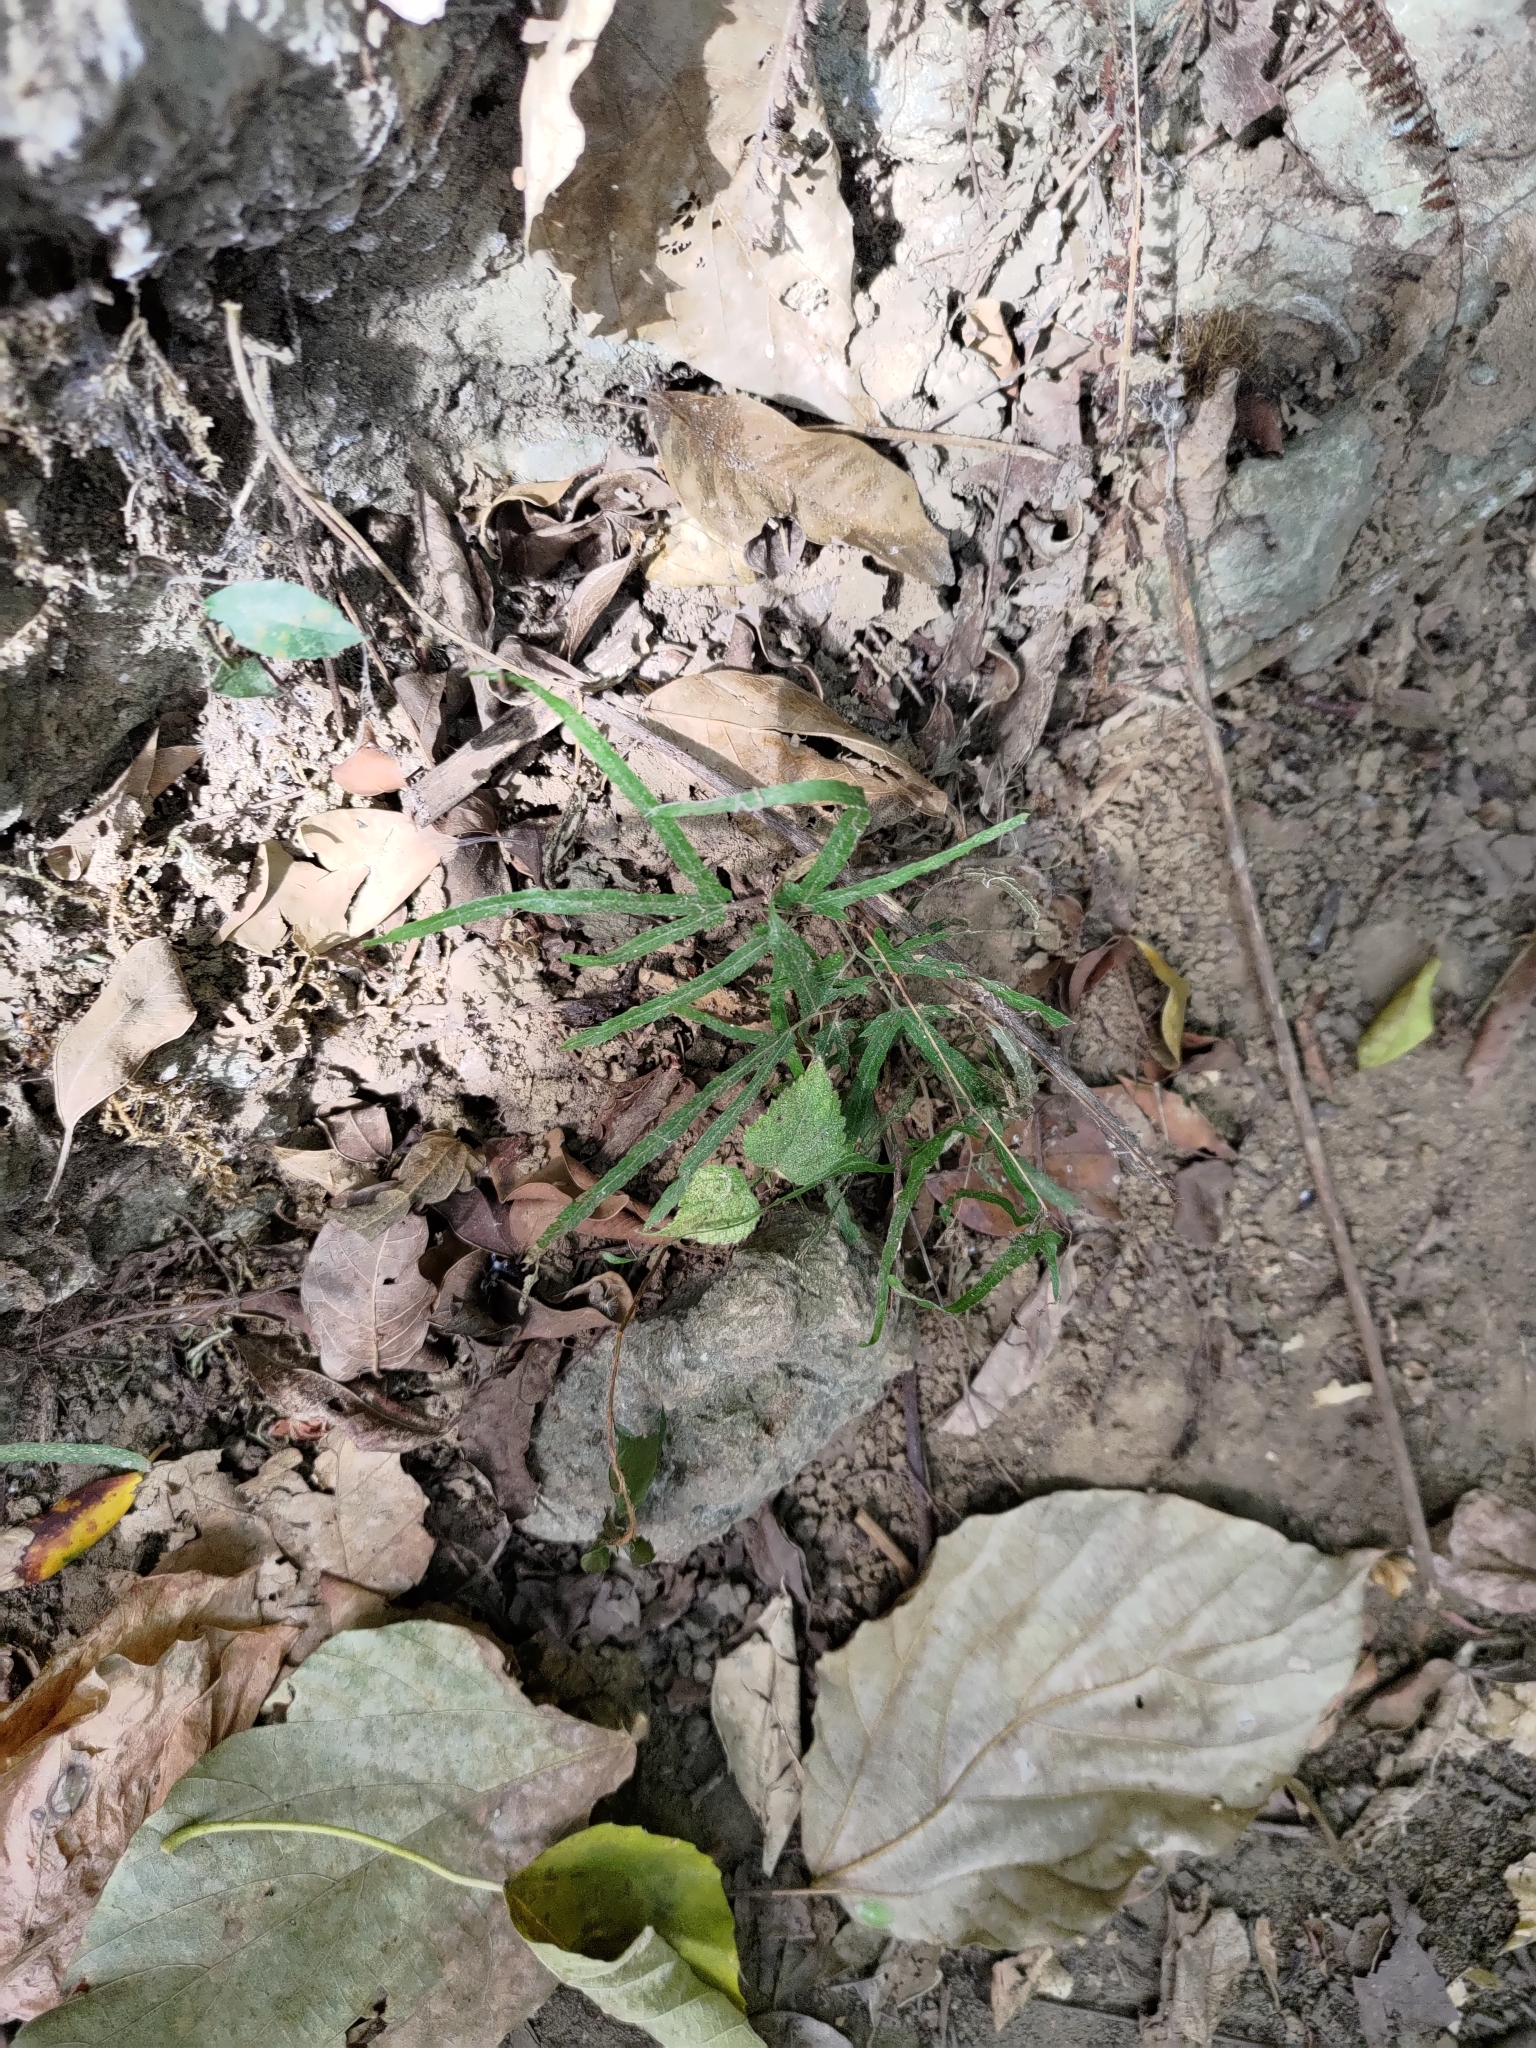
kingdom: Plantae
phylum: Tracheophyta
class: Polypodiopsida
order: Schizaeales
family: Lygodiaceae
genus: Lygodium
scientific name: Lygodium japonicum
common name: Japanese climbing fern
